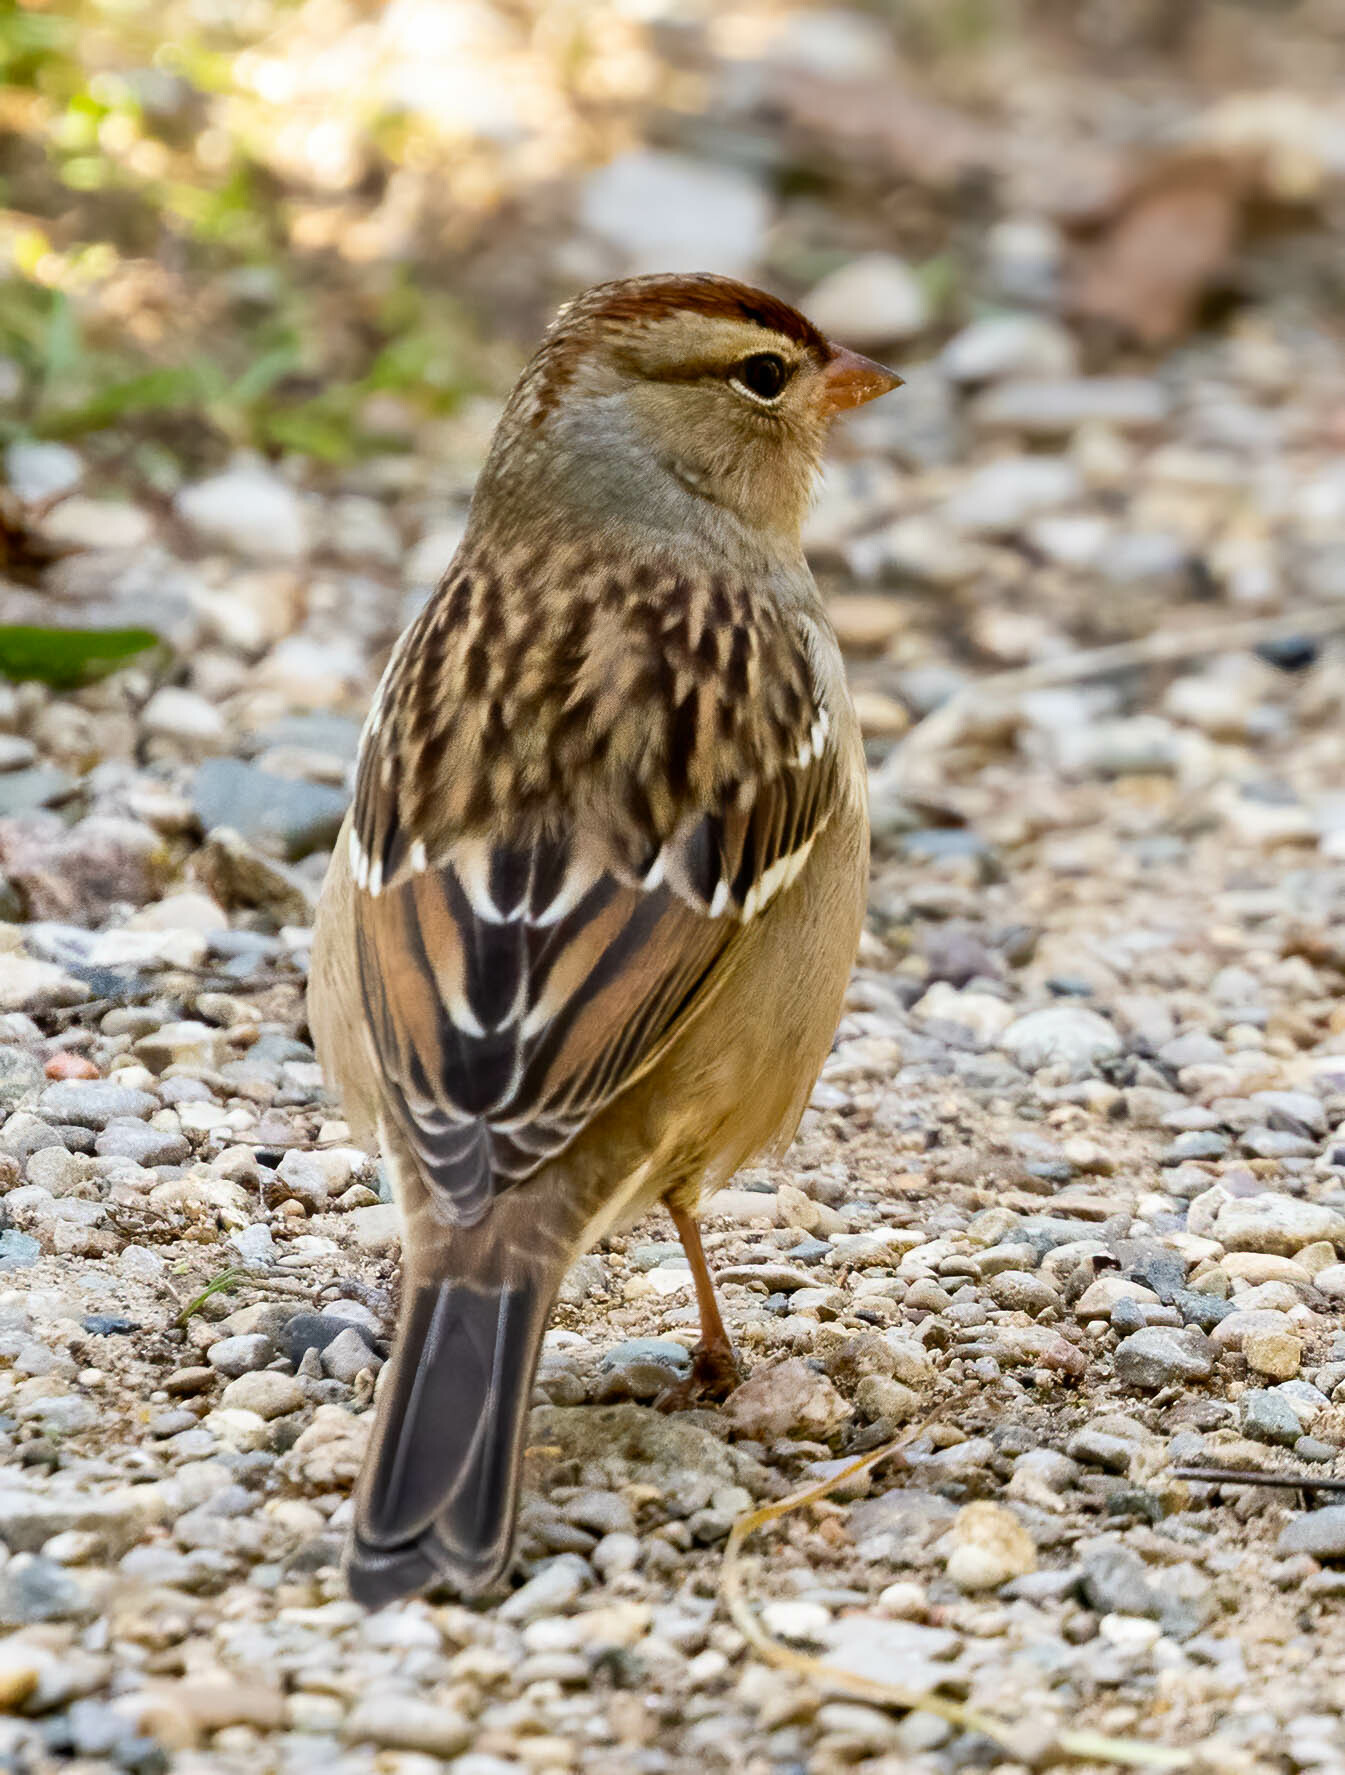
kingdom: Animalia
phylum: Chordata
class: Aves
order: Passeriformes
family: Passerellidae
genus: Zonotrichia
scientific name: Zonotrichia leucophrys
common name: White-crowned sparrow
